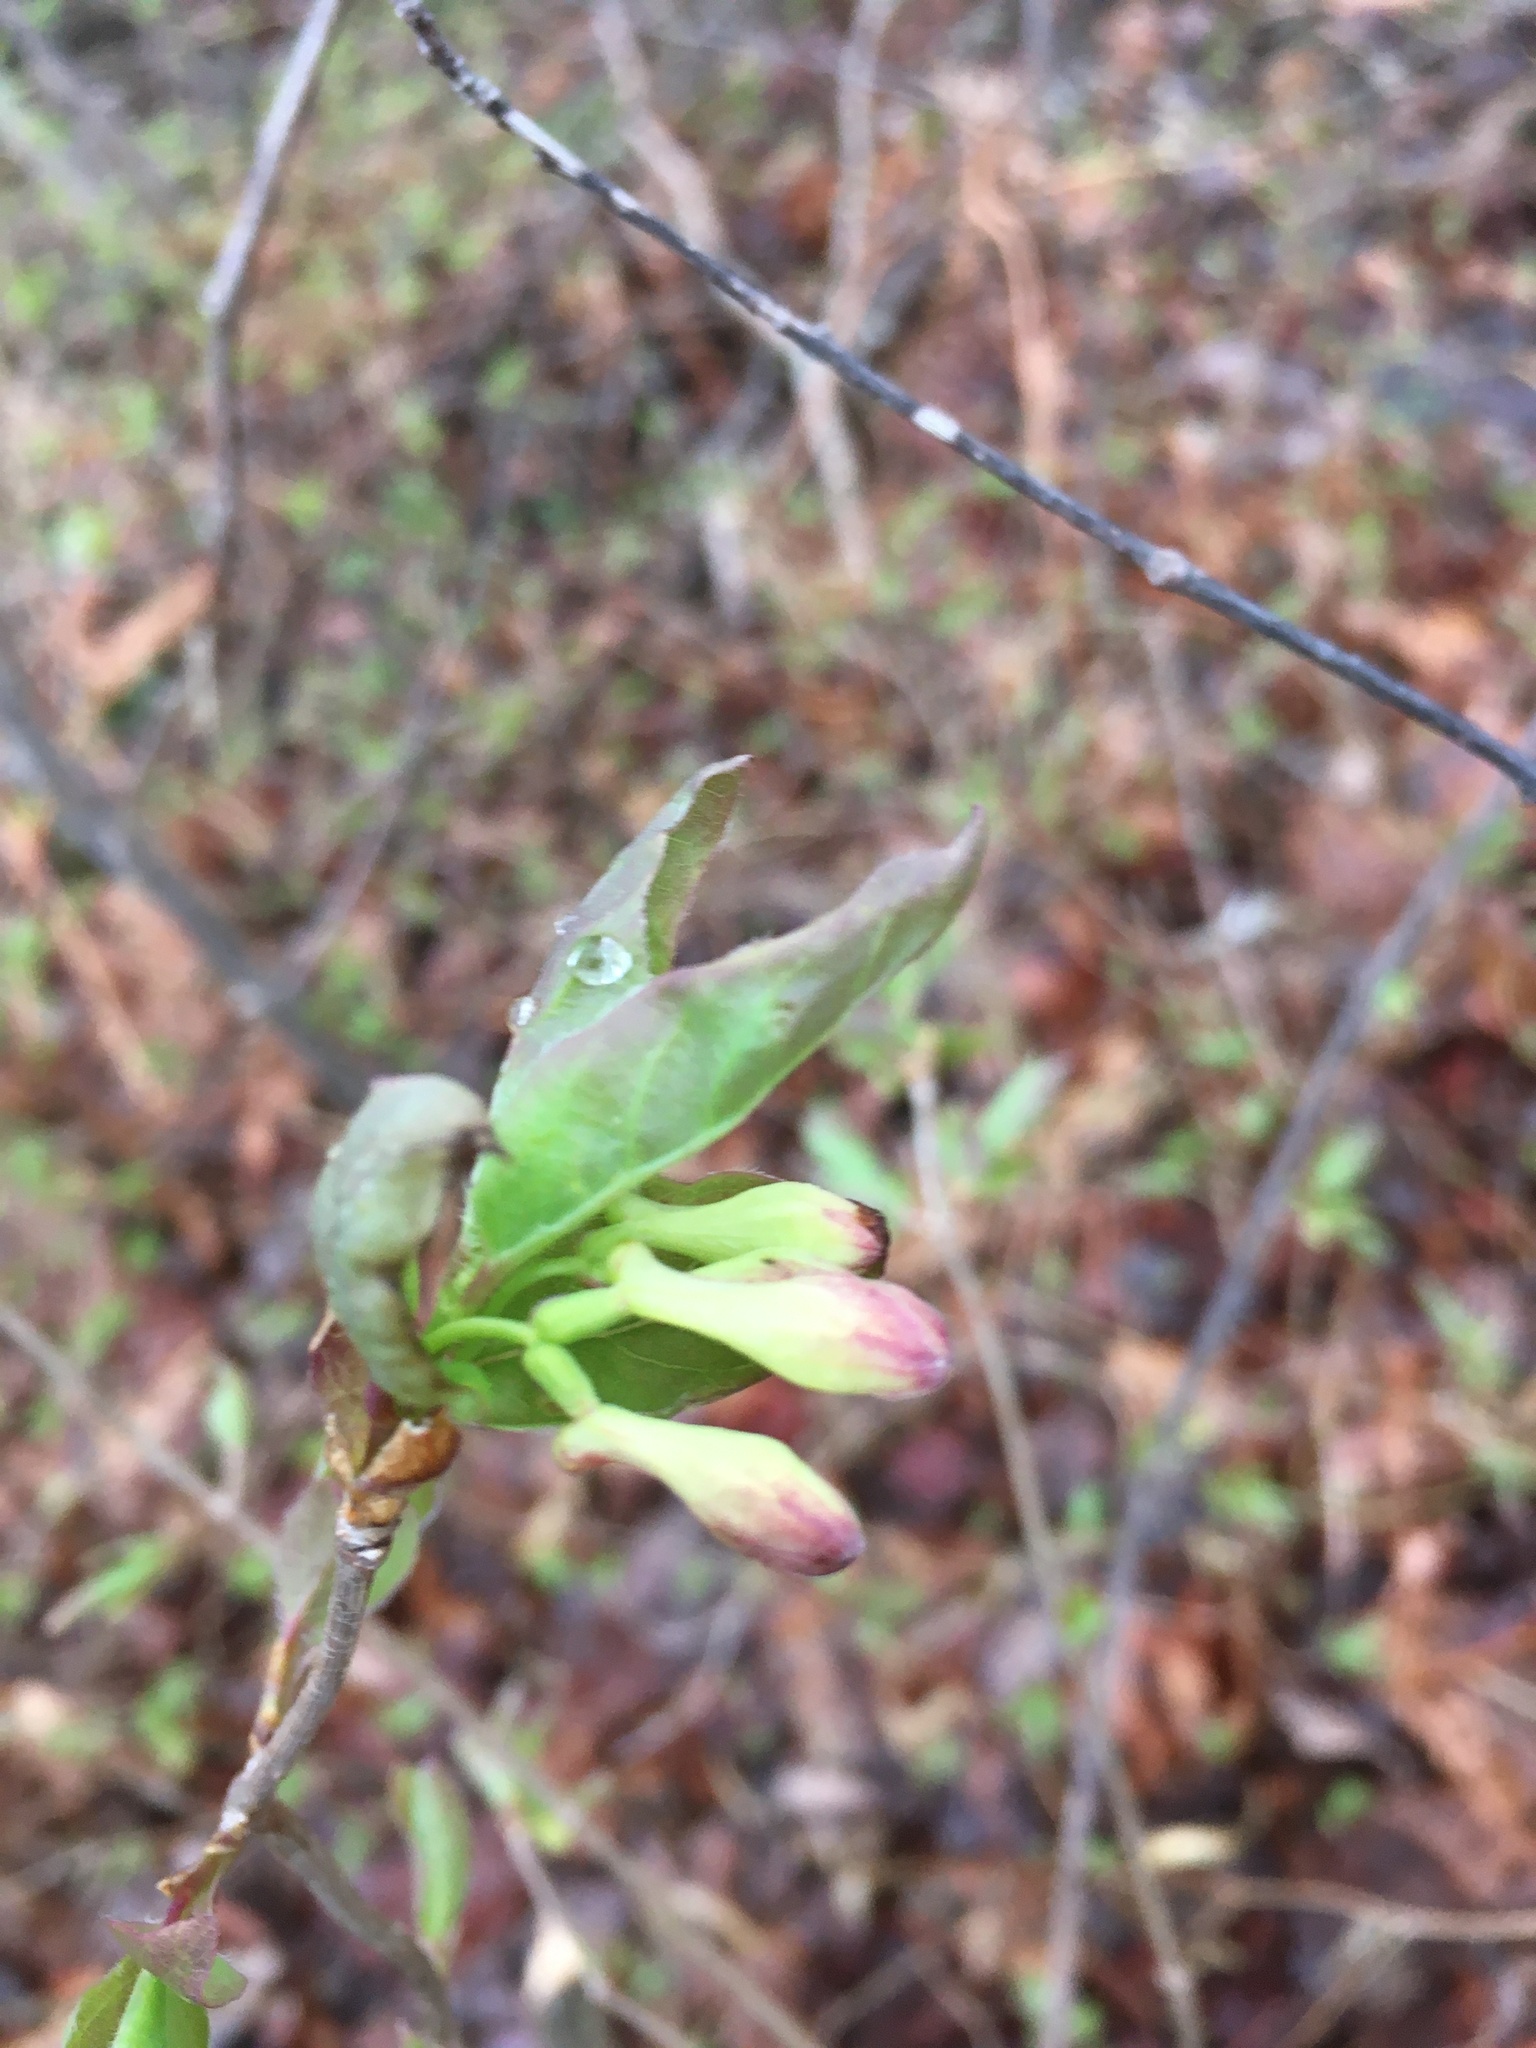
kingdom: Plantae
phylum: Tracheophyta
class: Magnoliopsida
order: Dipsacales
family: Caprifoliaceae
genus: Lonicera
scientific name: Lonicera canadensis
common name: American fly-honeysuckle
